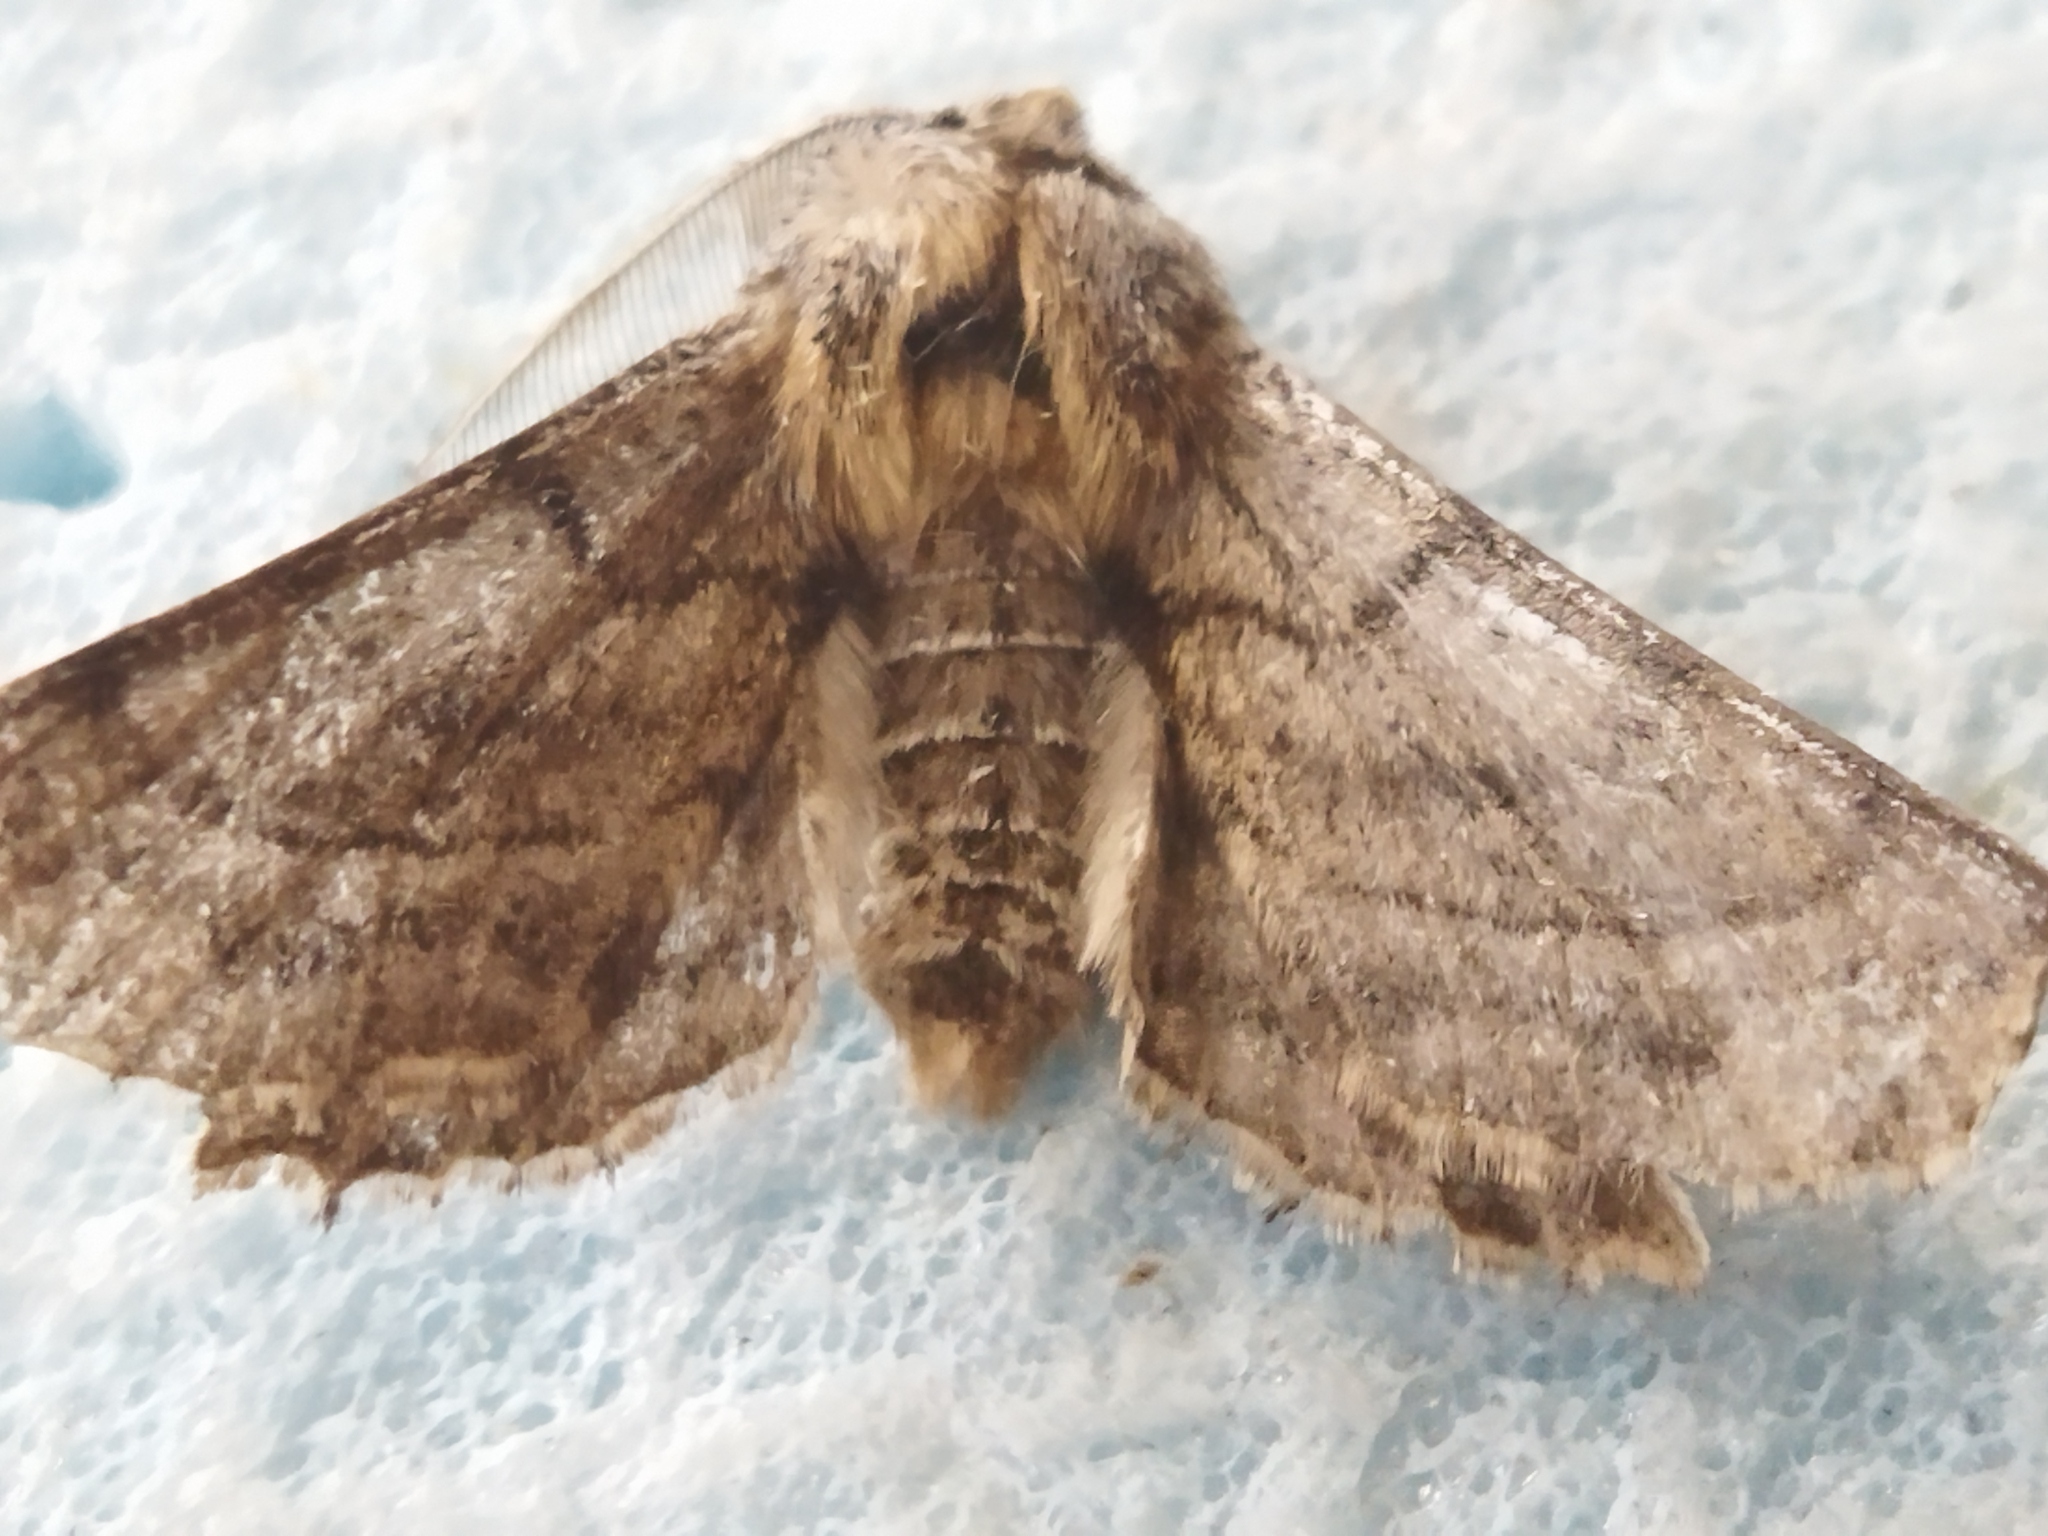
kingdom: Animalia
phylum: Arthropoda
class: Insecta
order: Lepidoptera
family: Geometridae
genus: Apochima
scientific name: Apochima flabellaria
